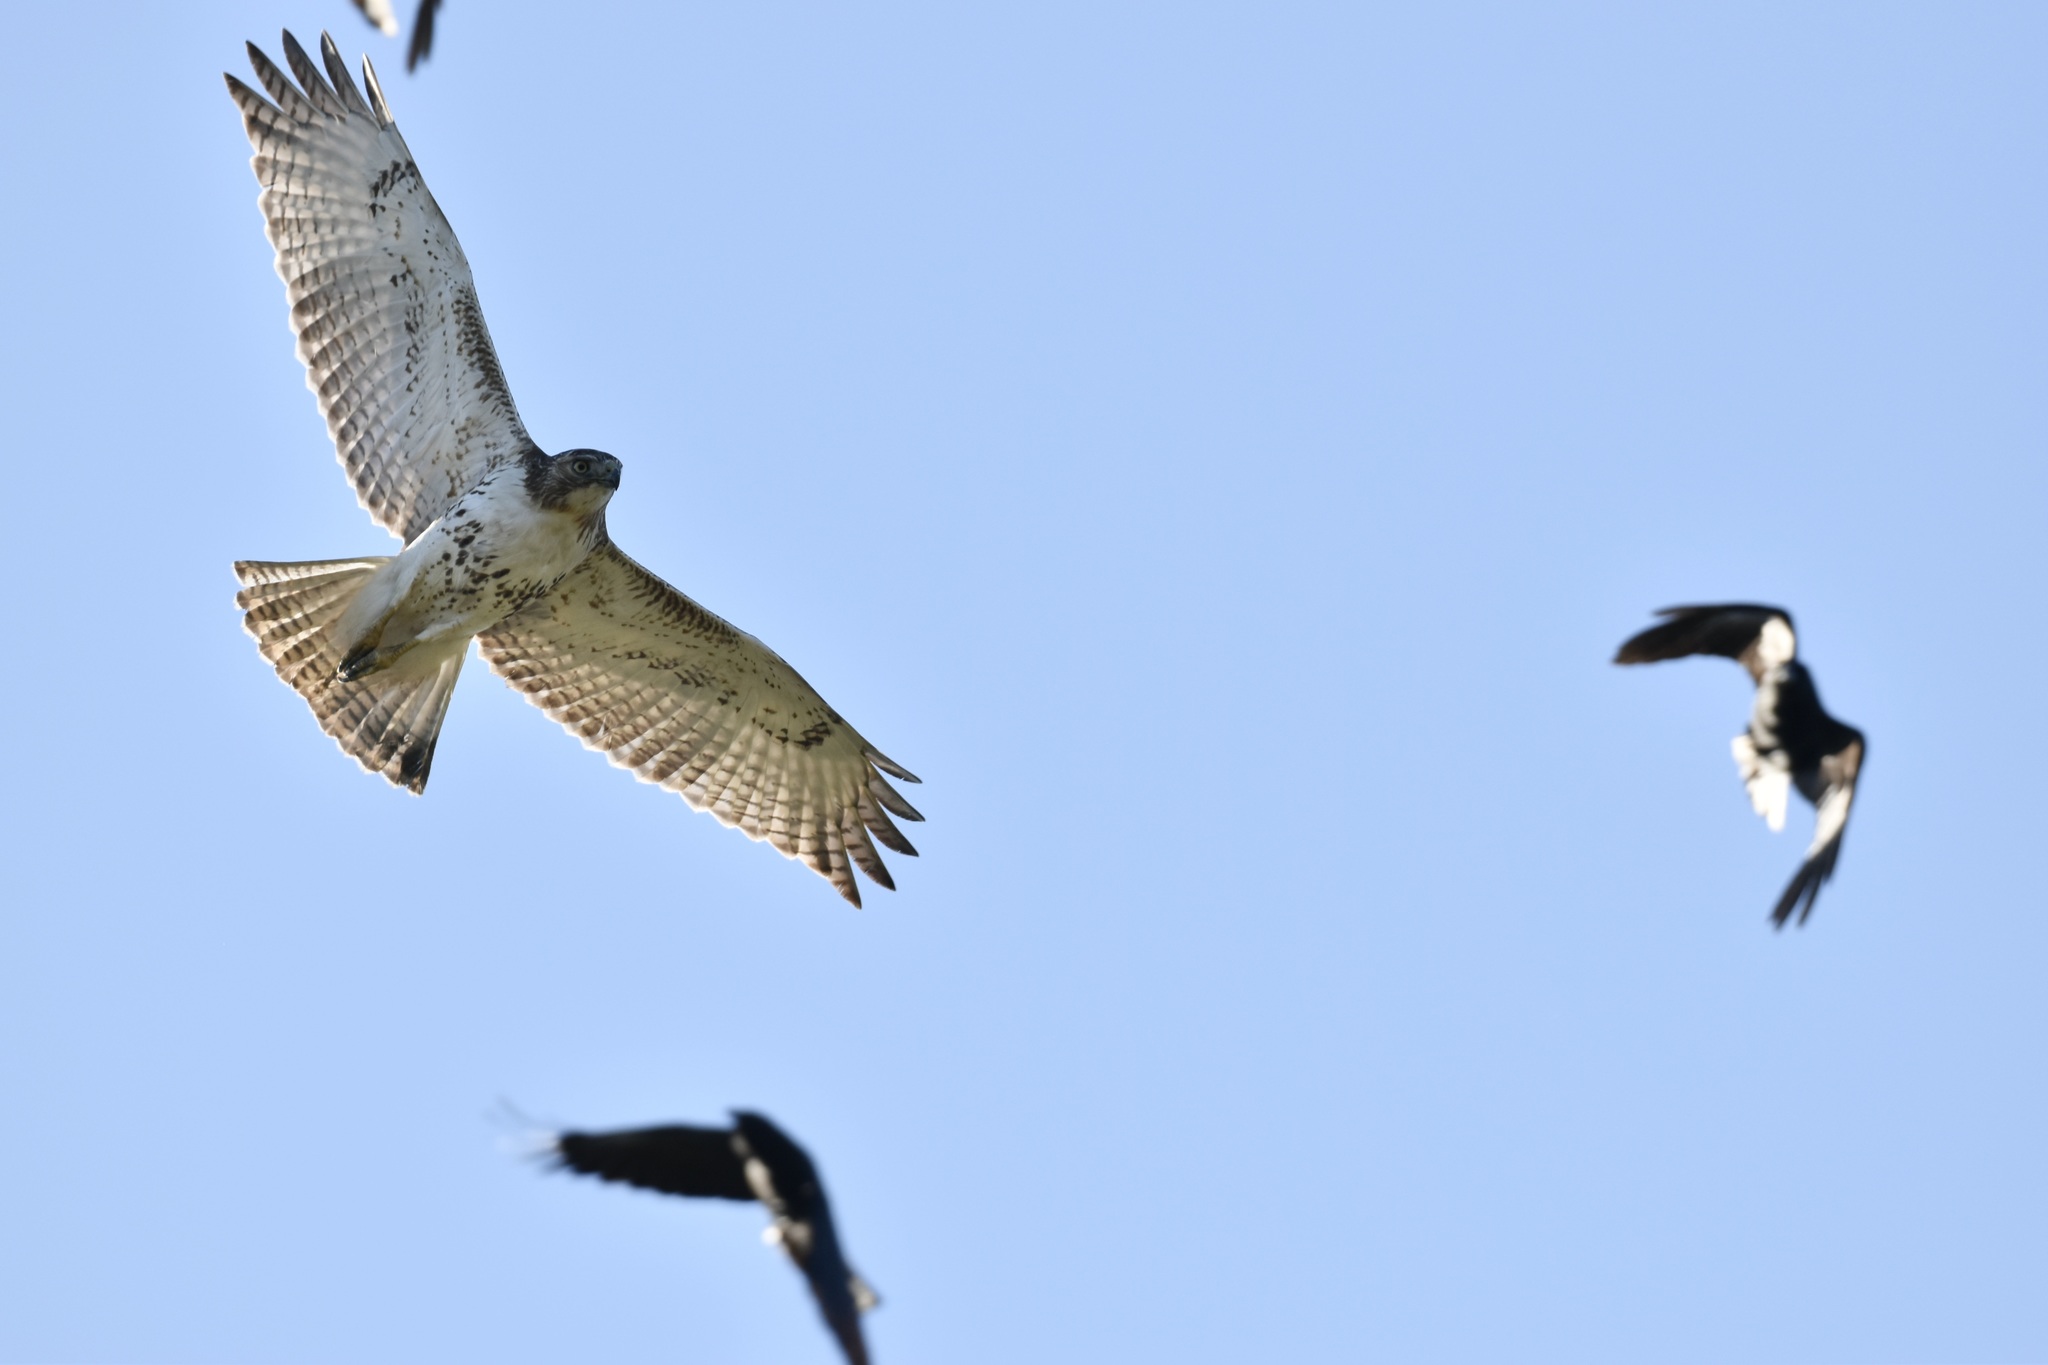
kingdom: Animalia
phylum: Chordata
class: Aves
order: Accipitriformes
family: Accipitridae
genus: Buteo
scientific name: Buteo jamaicensis
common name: Red-tailed hawk
